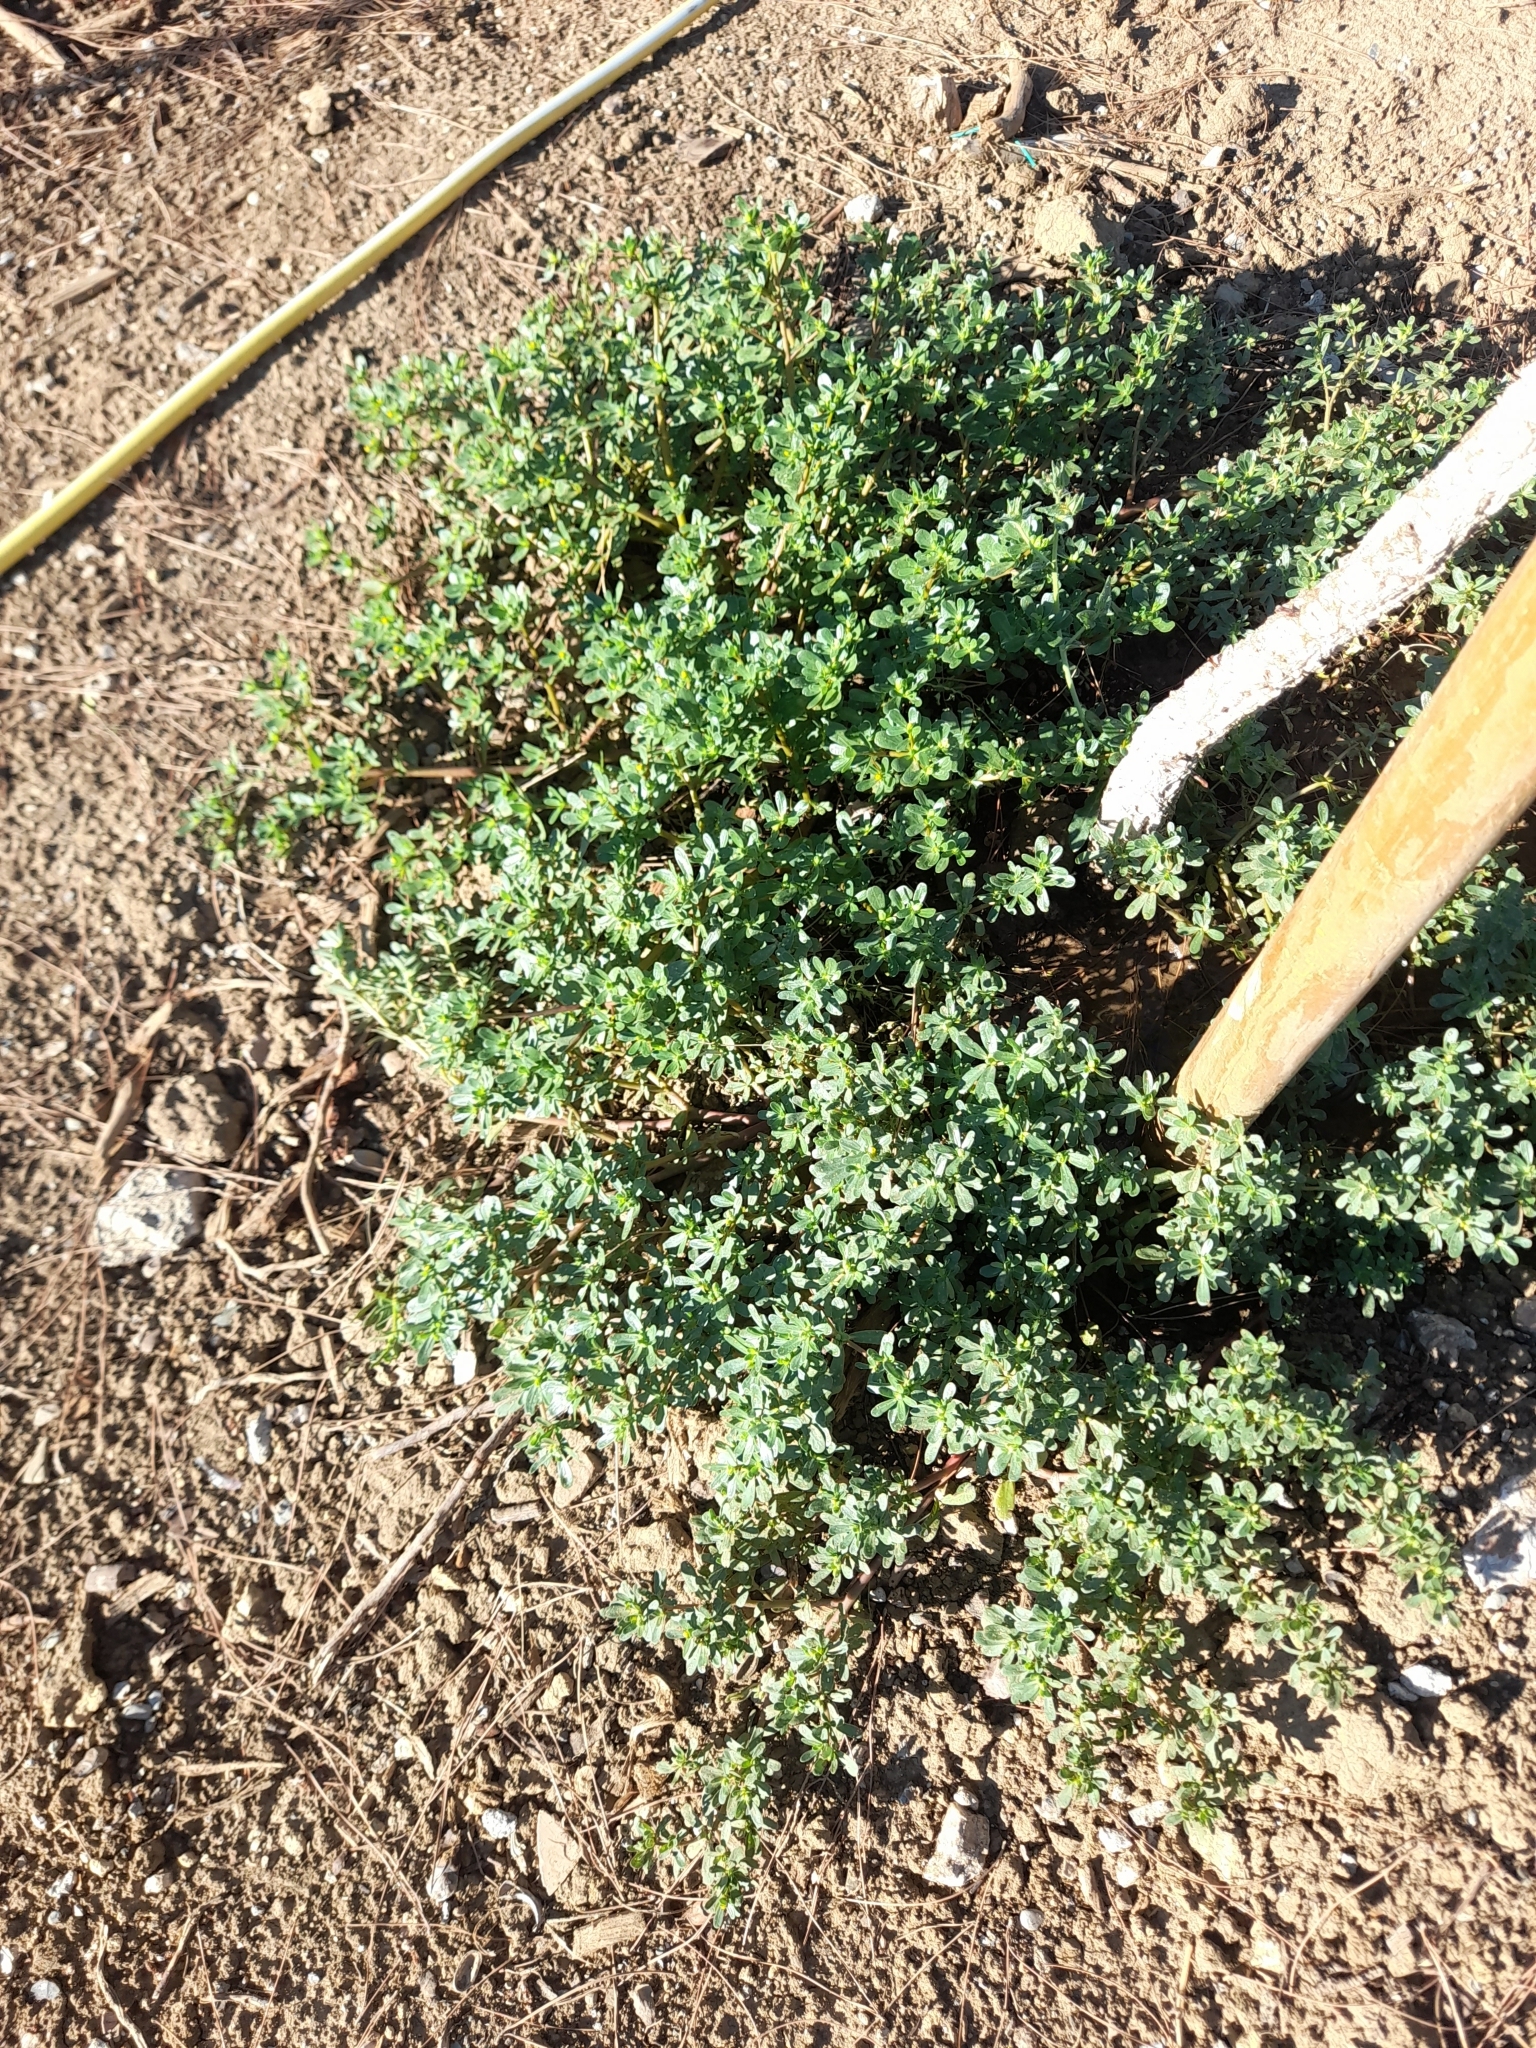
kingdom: Plantae
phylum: Tracheophyta
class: Magnoliopsida
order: Caryophyllales
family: Portulacaceae
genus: Portulaca
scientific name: Portulaca oleracea
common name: Common purslane
